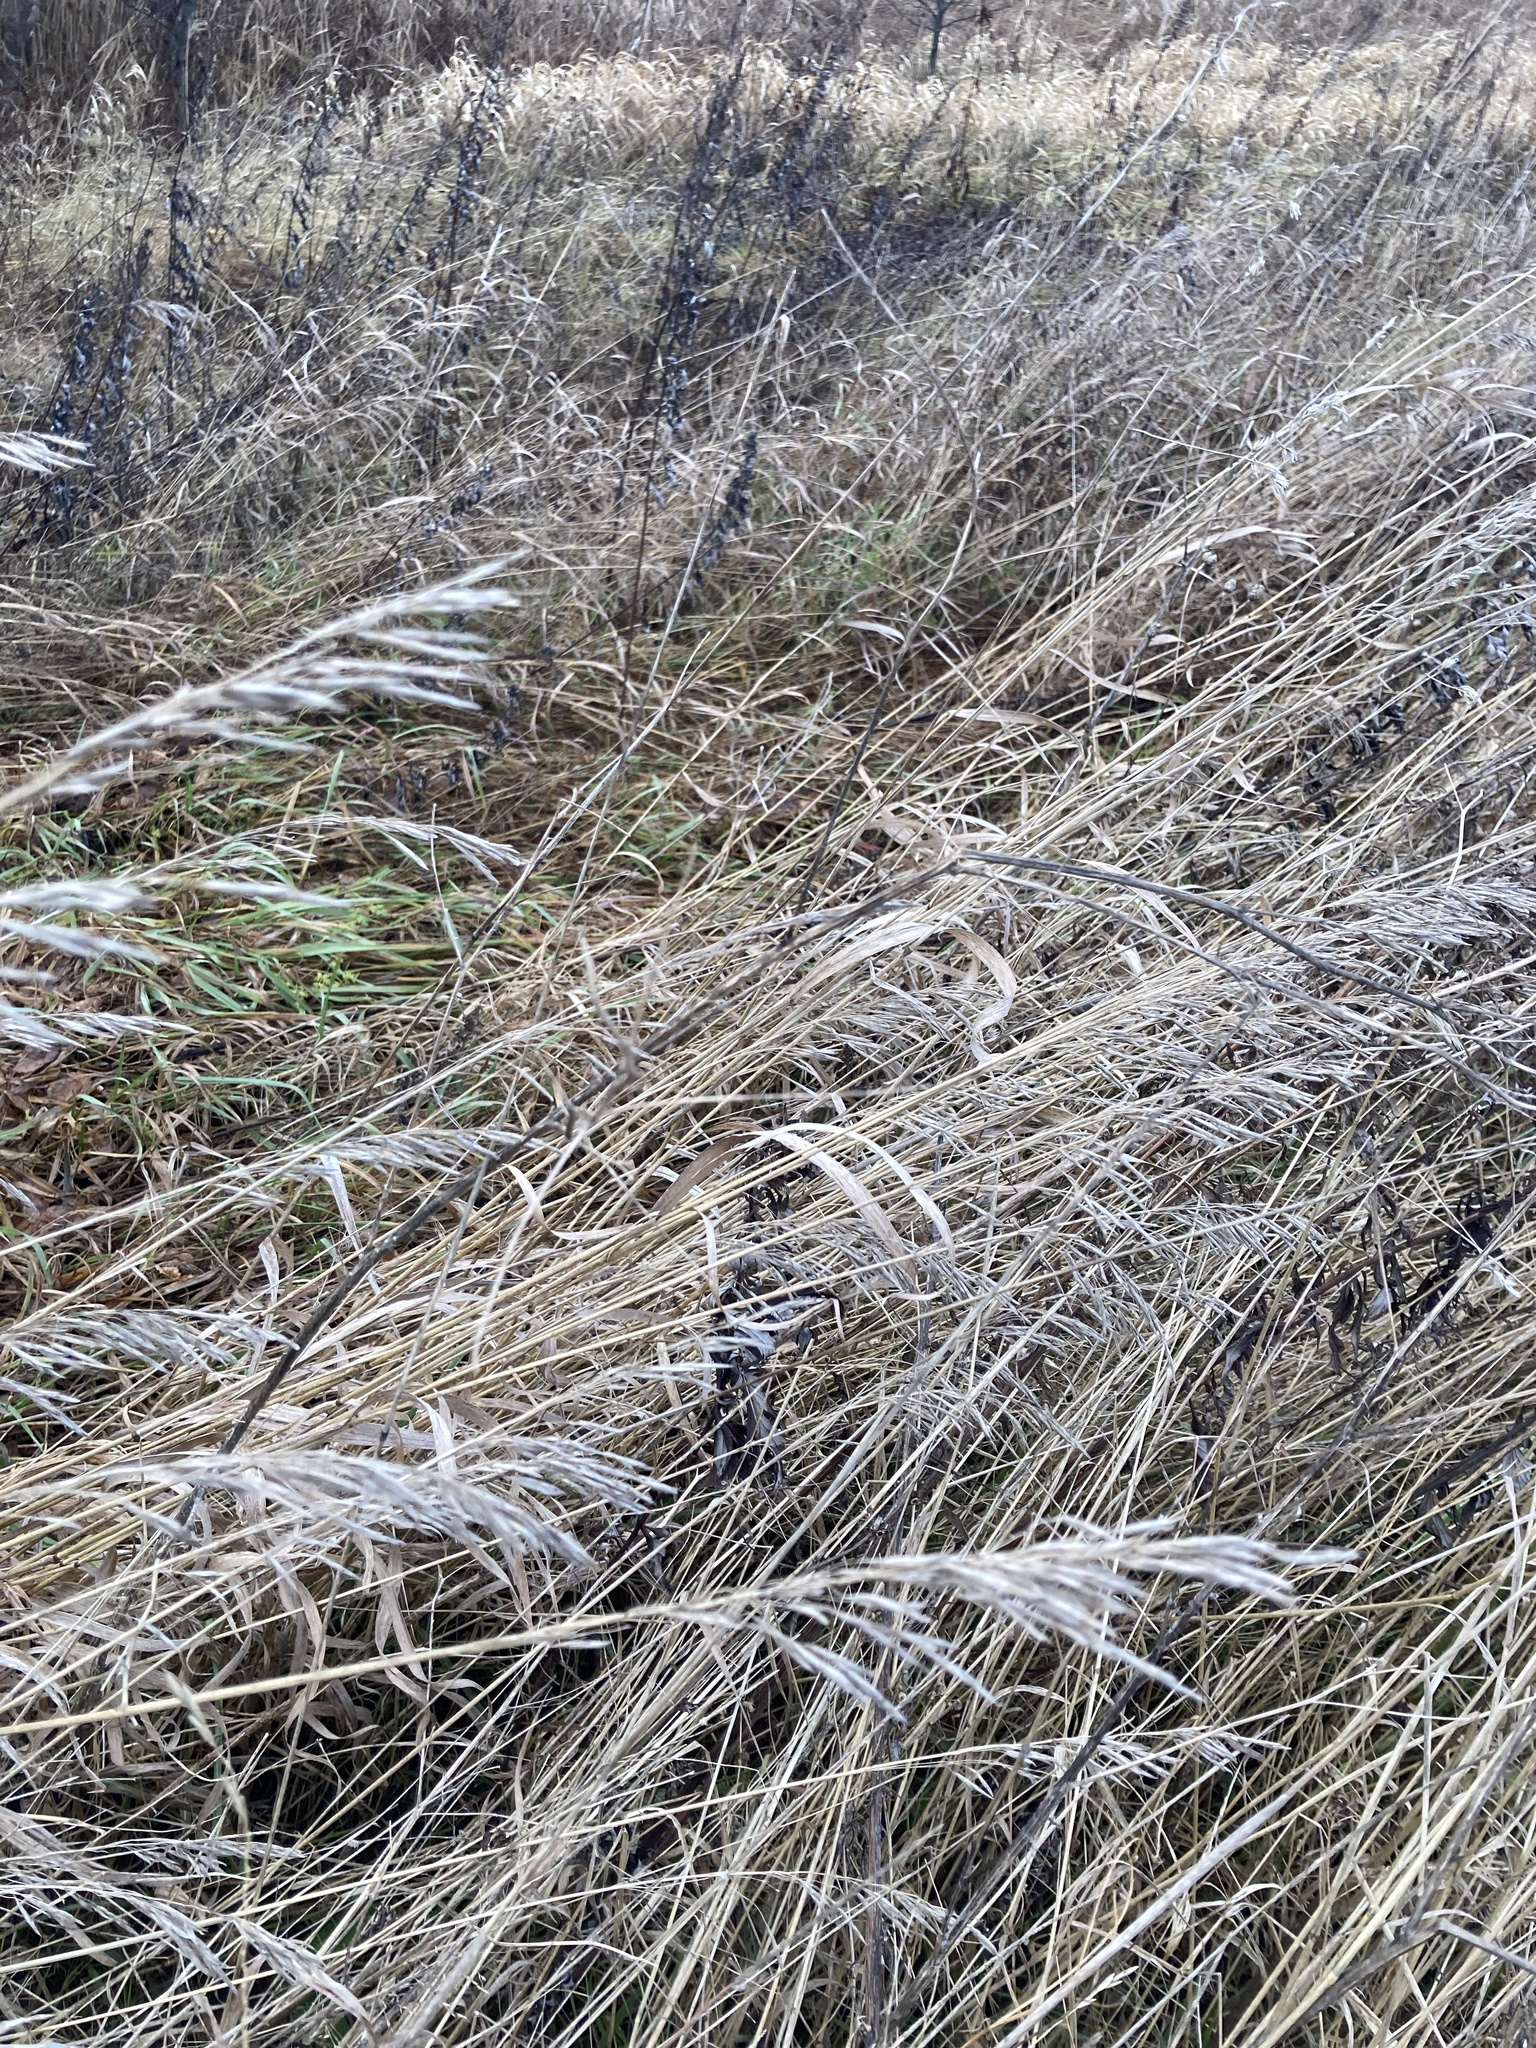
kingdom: Plantae
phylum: Tracheophyta
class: Liliopsida
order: Poales
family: Poaceae
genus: Bromus
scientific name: Bromus inermis
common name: Smooth brome
